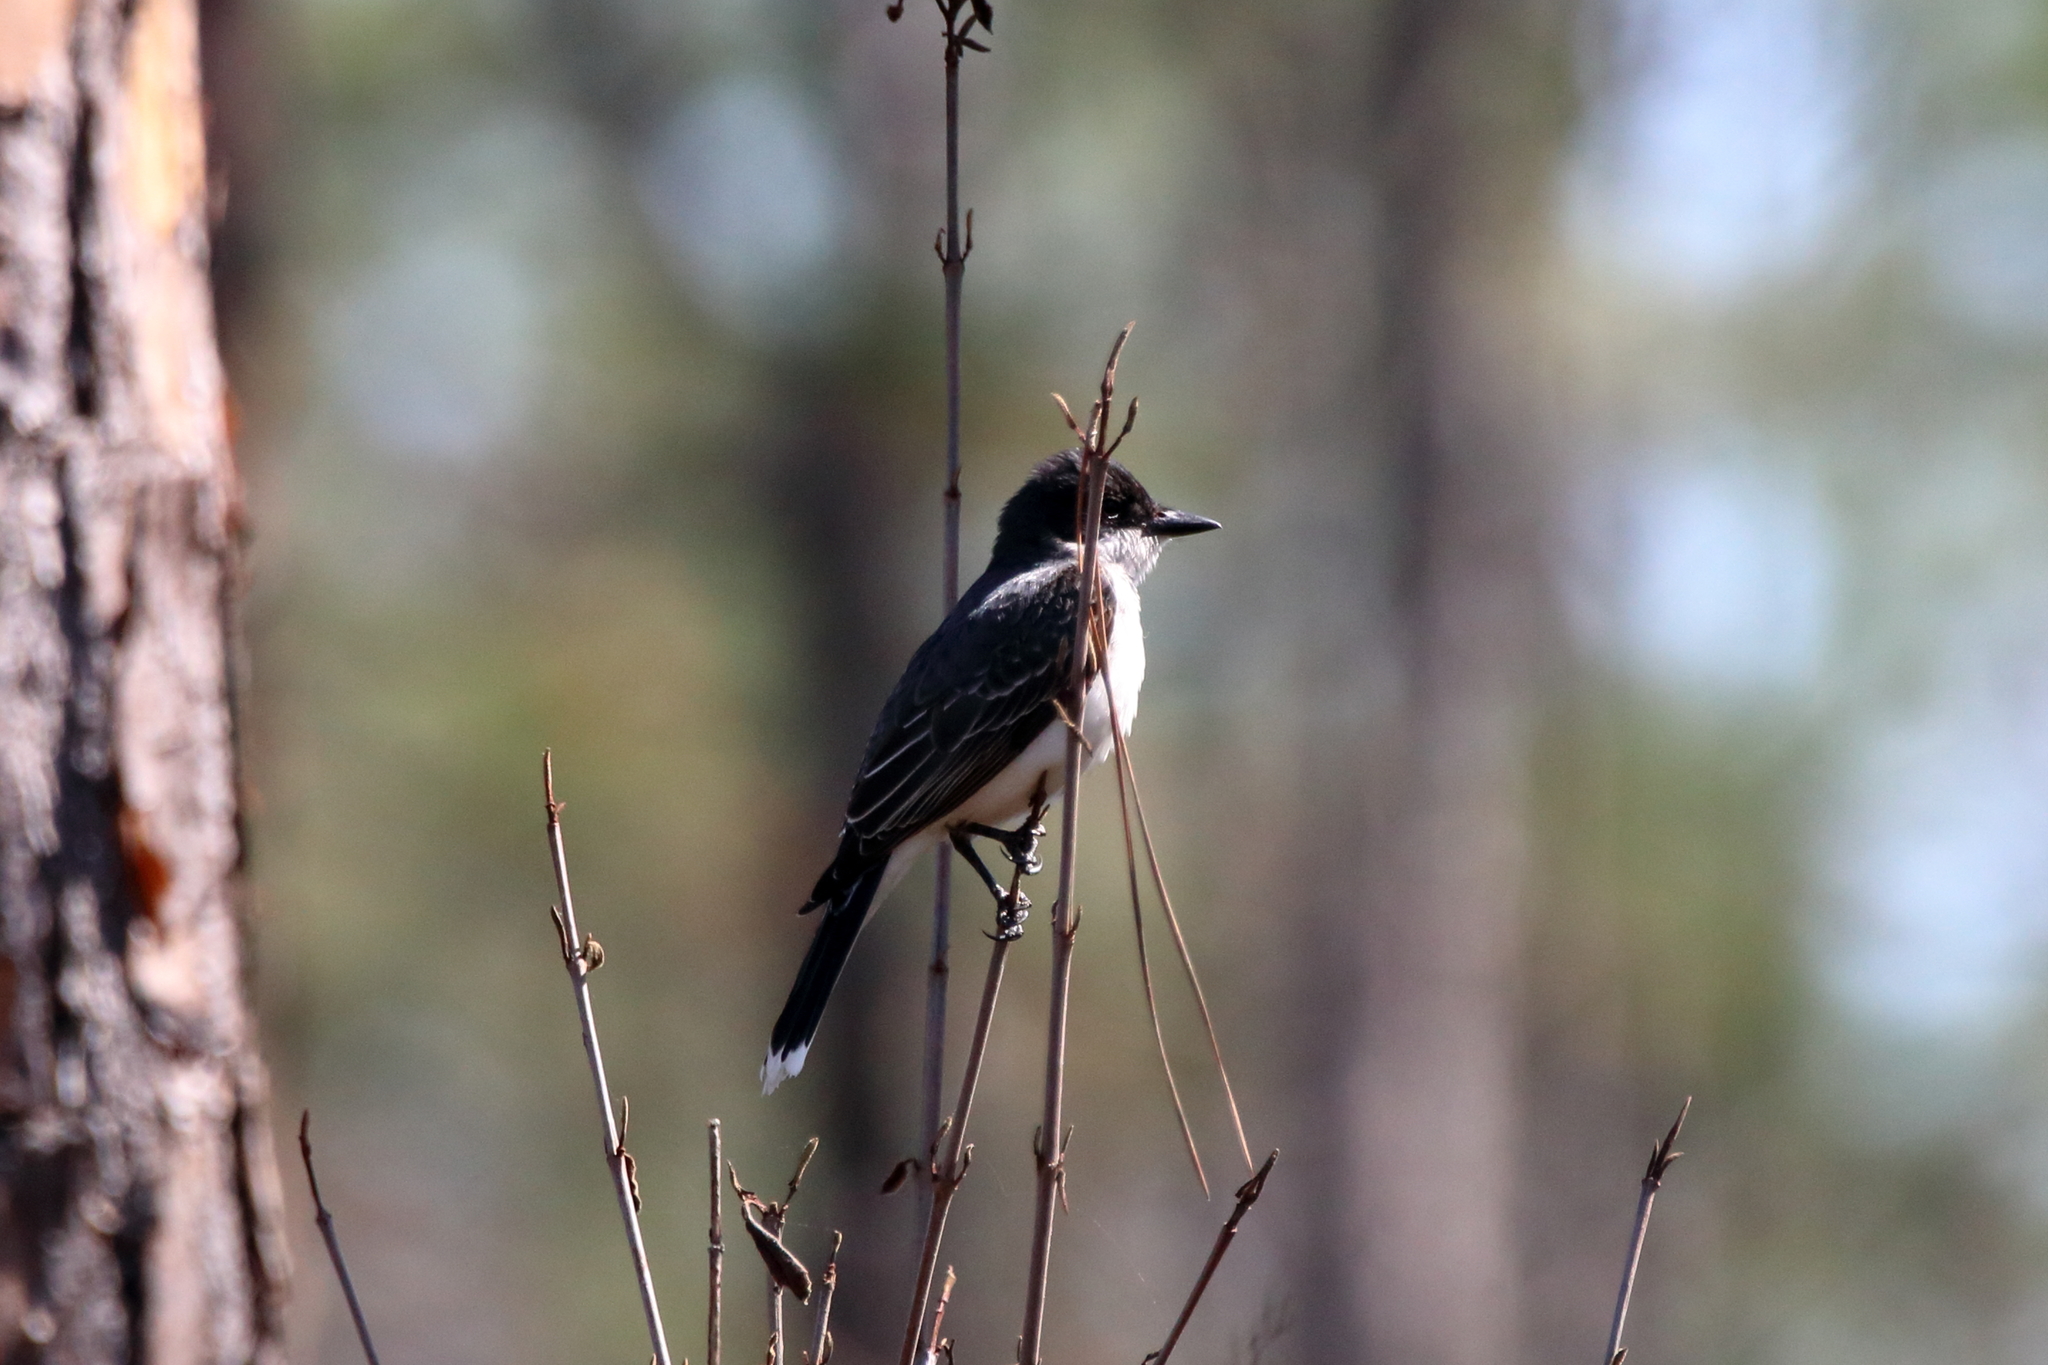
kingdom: Animalia
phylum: Chordata
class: Aves
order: Passeriformes
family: Tyrannidae
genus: Tyrannus
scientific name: Tyrannus tyrannus
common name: Eastern kingbird
